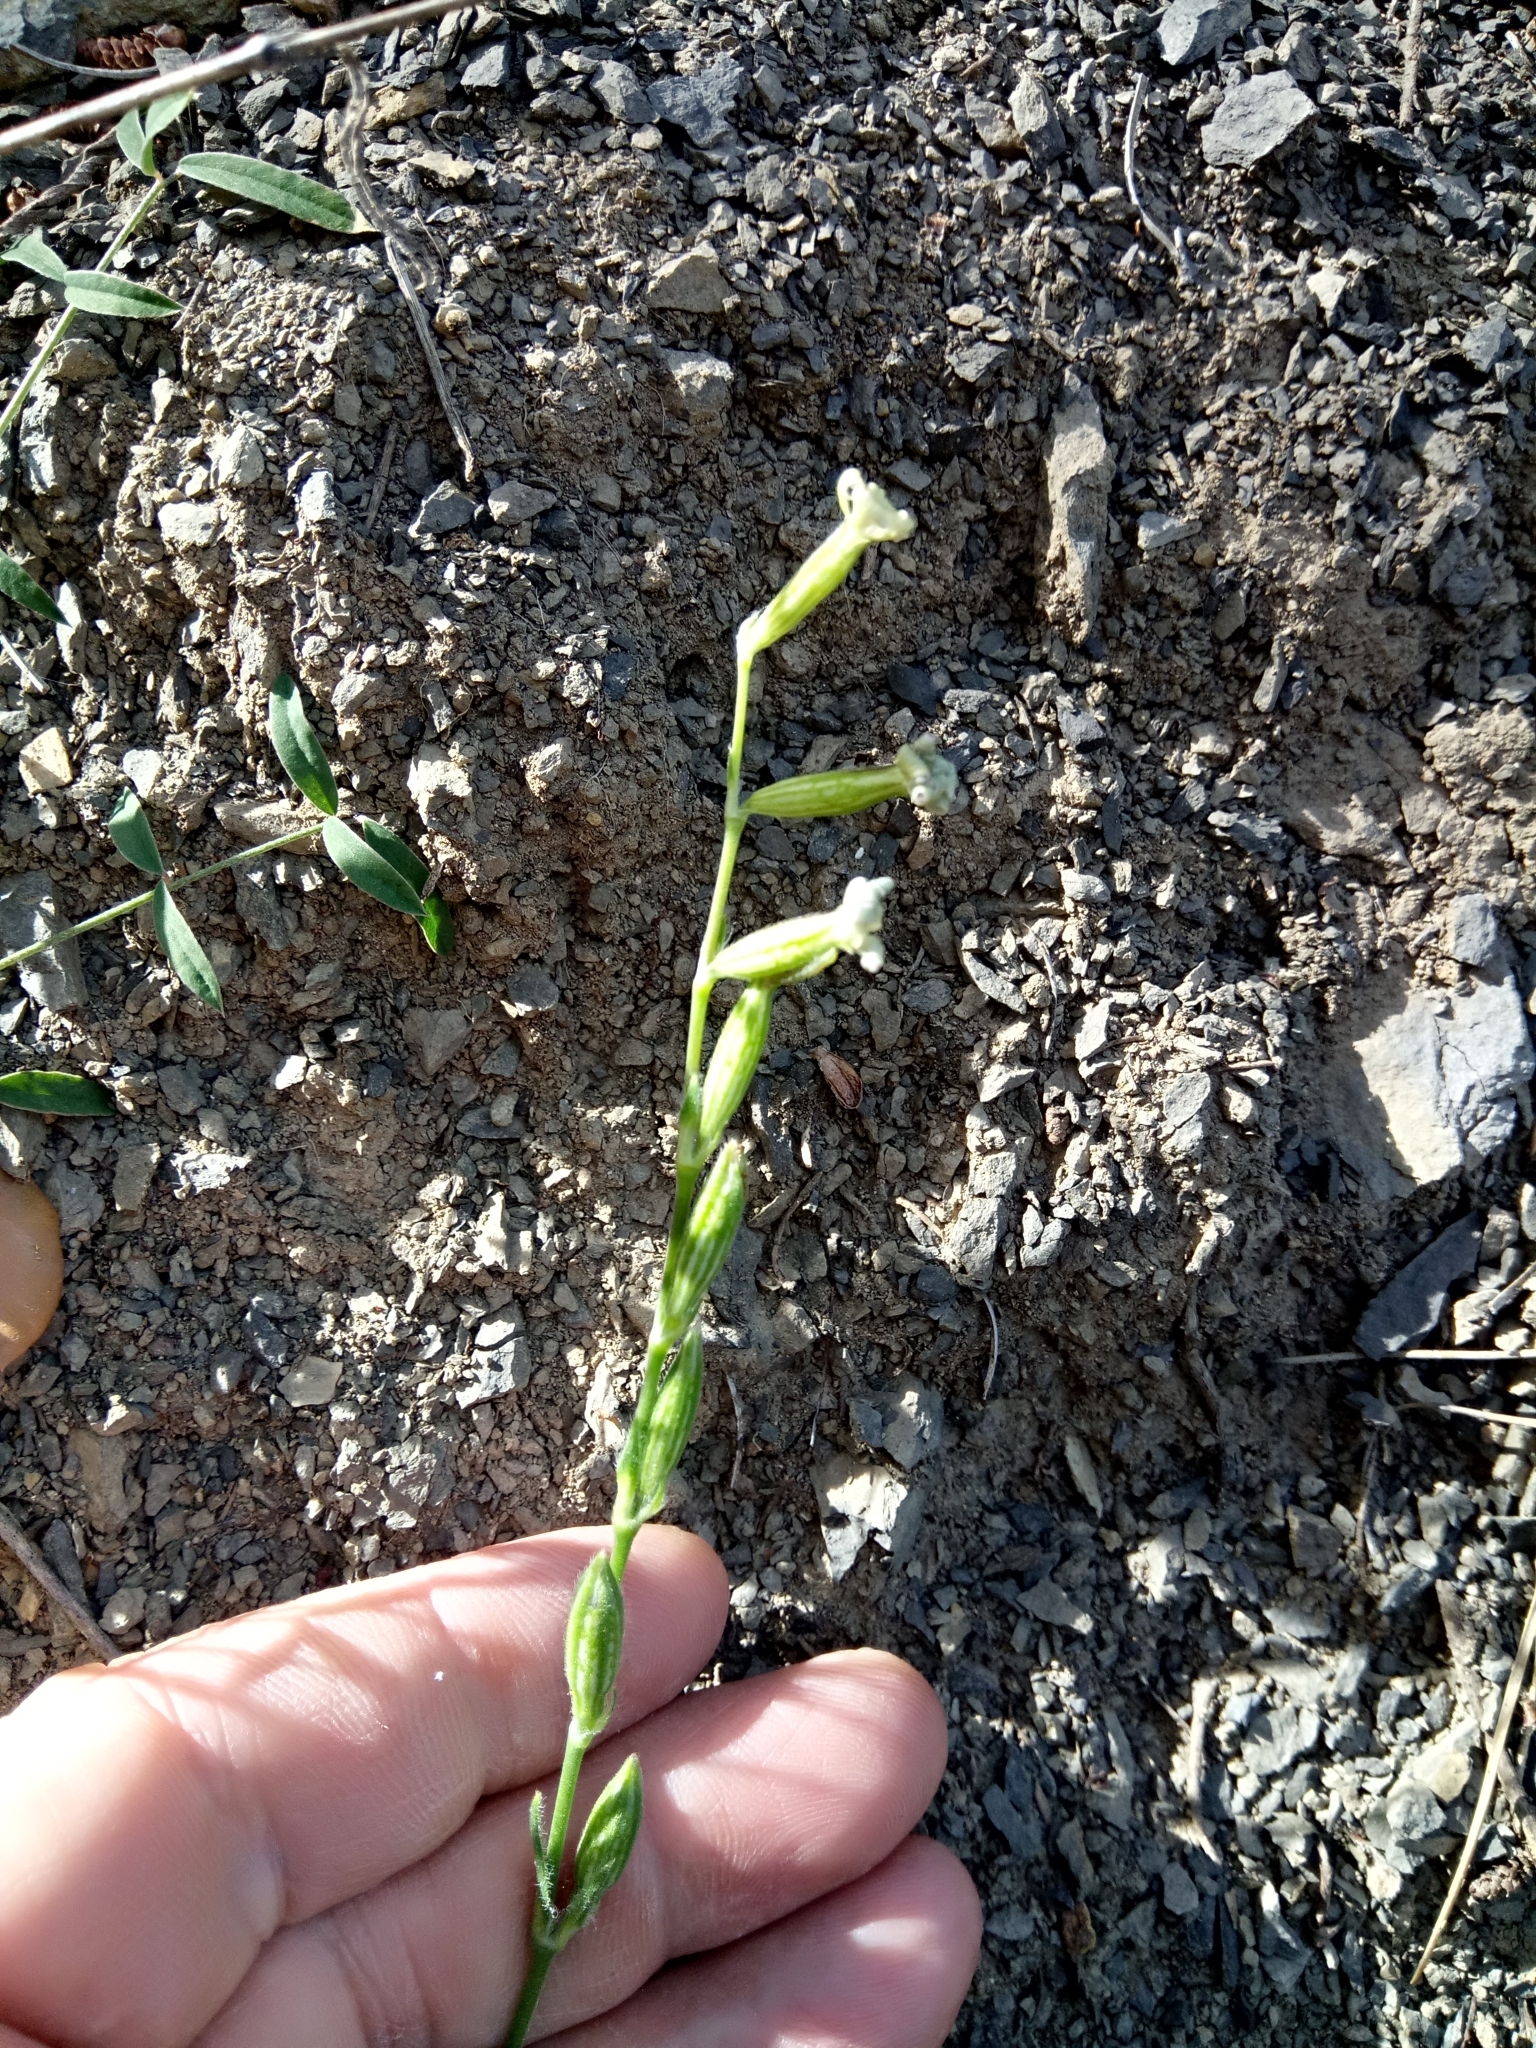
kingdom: Plantae
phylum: Tracheophyta
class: Magnoliopsida
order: Caryophyllales
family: Caryophyllaceae
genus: Silene
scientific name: Silene nocturna
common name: Mediterranean catchfly
